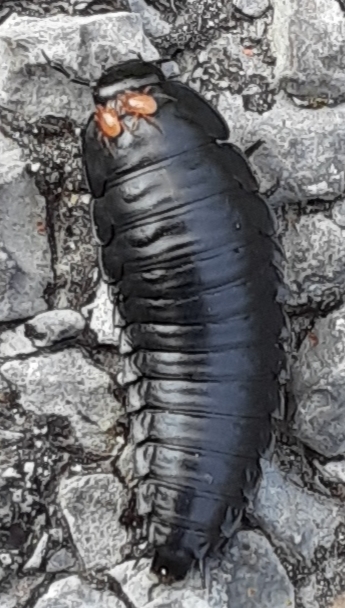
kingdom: Animalia
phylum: Arthropoda
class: Insecta
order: Coleoptera
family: Staphylinidae
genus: Necrophila
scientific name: Necrophila americana
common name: American carrion beetle
